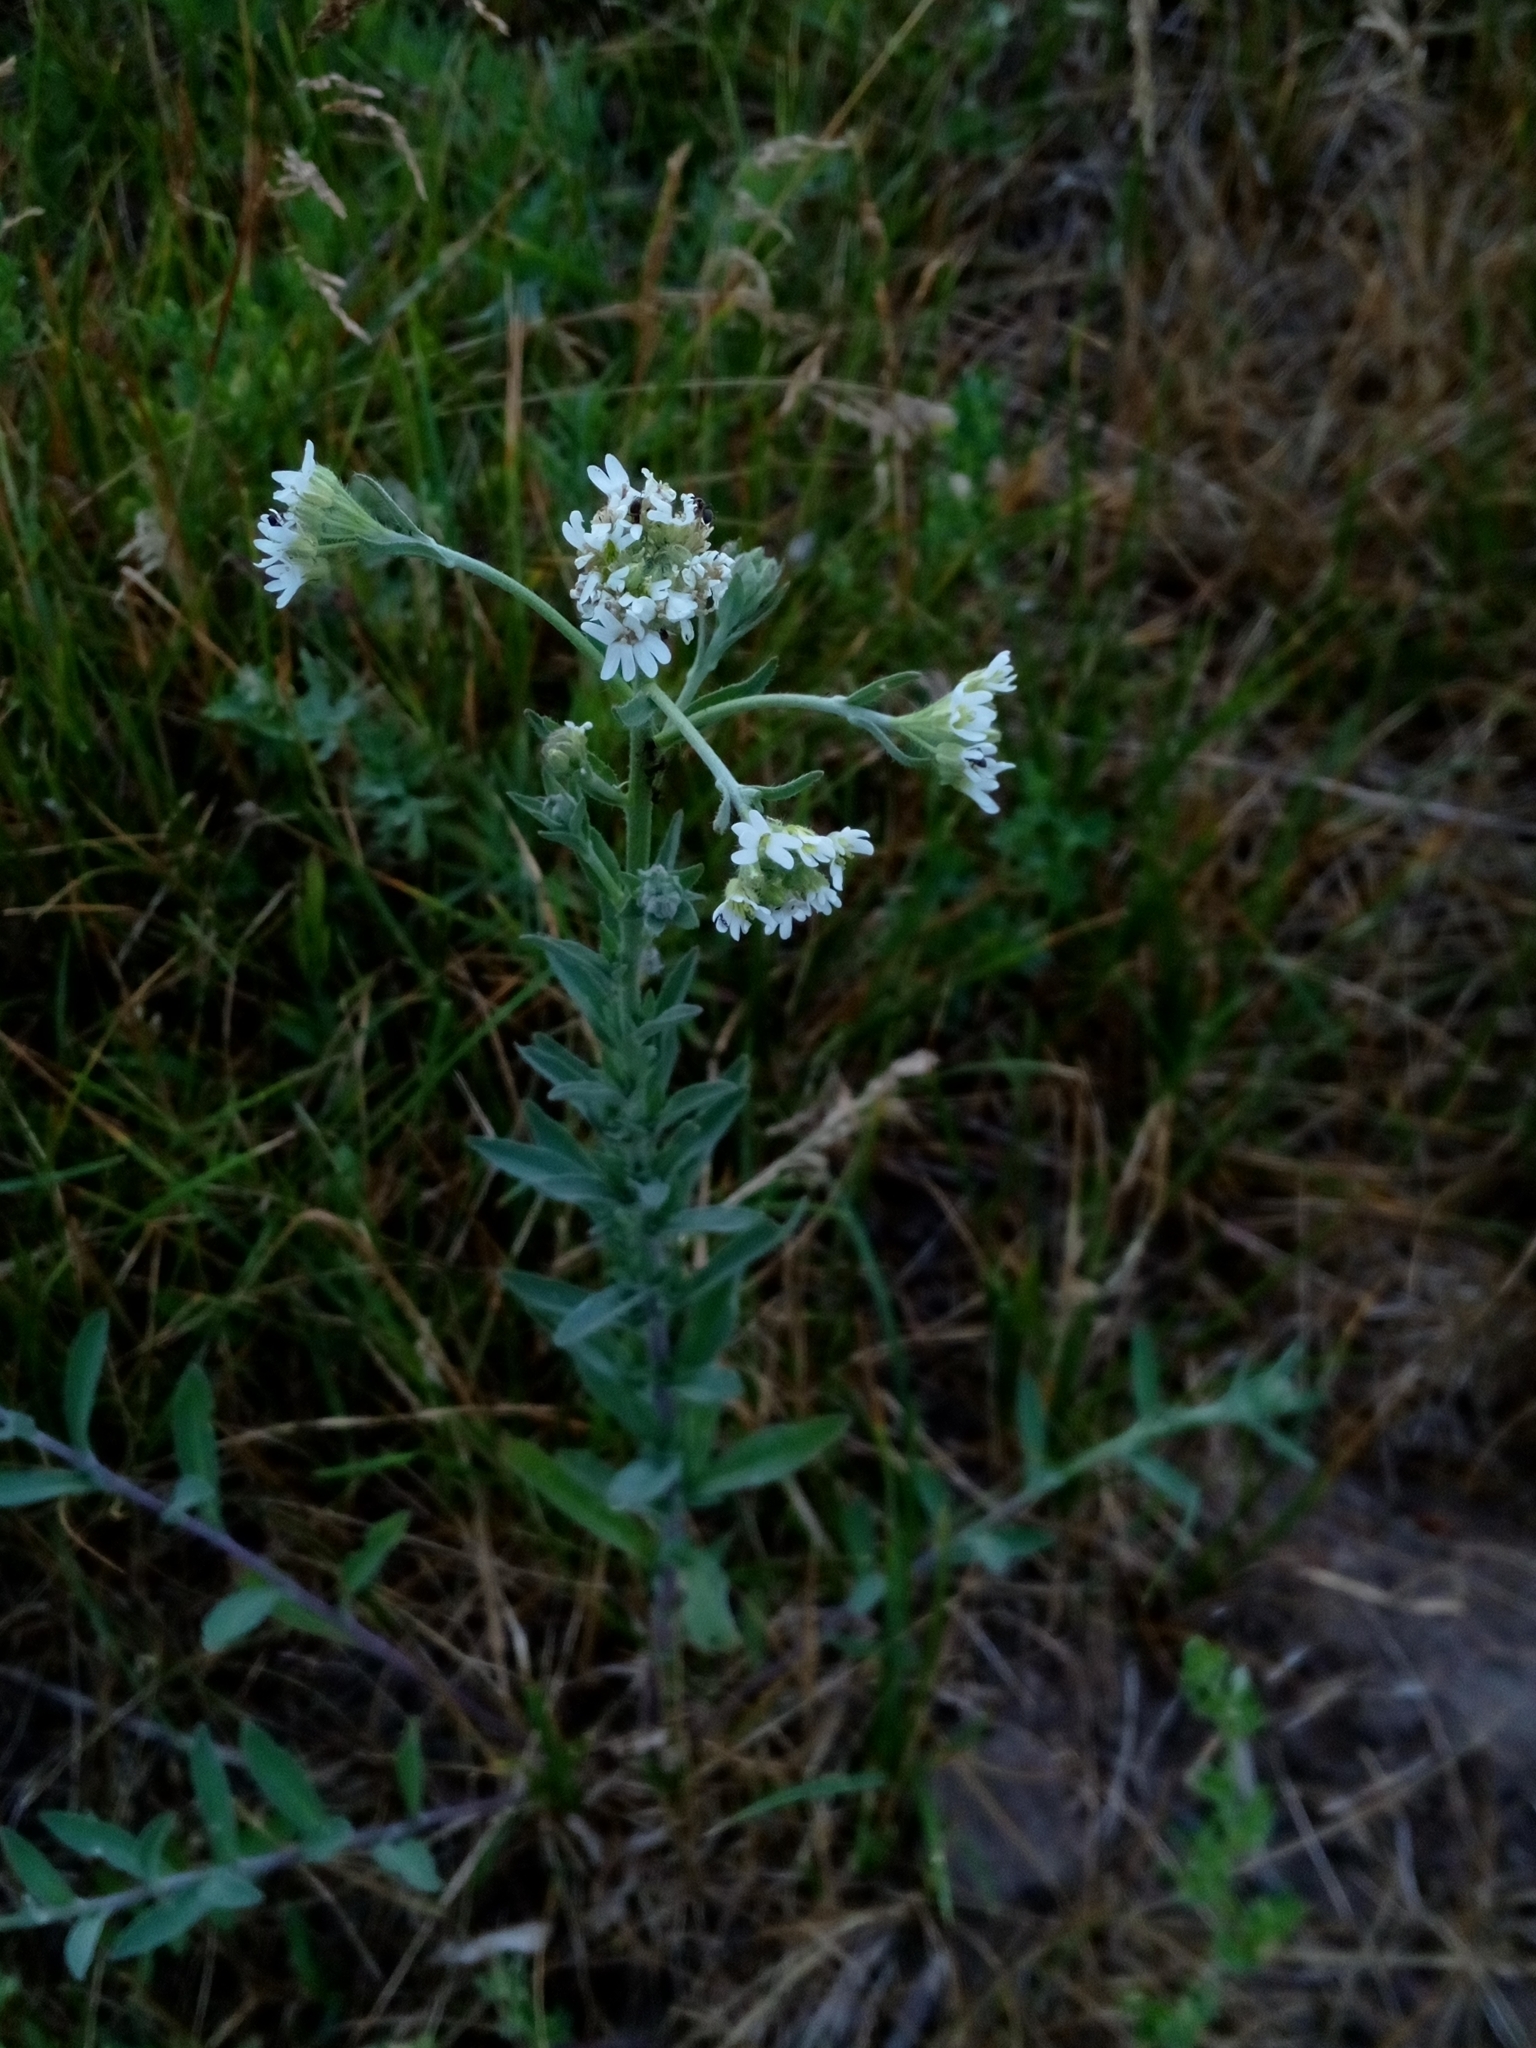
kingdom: Plantae
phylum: Tracheophyta
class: Magnoliopsida
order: Brassicales
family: Brassicaceae
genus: Berteroa
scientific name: Berteroa incana
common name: Hoary alison
